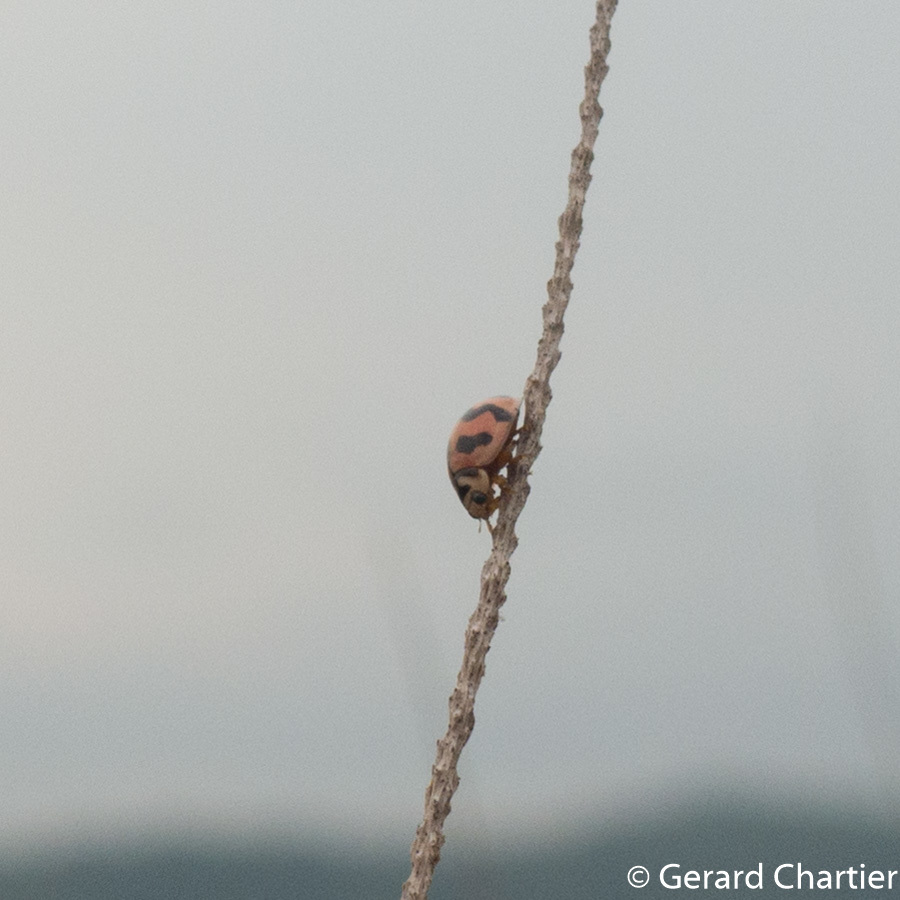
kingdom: Animalia
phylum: Arthropoda
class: Insecta
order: Coleoptera
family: Coccinellidae
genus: Cheilomenes
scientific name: Cheilomenes sexmaculata
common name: Ladybird beetle
